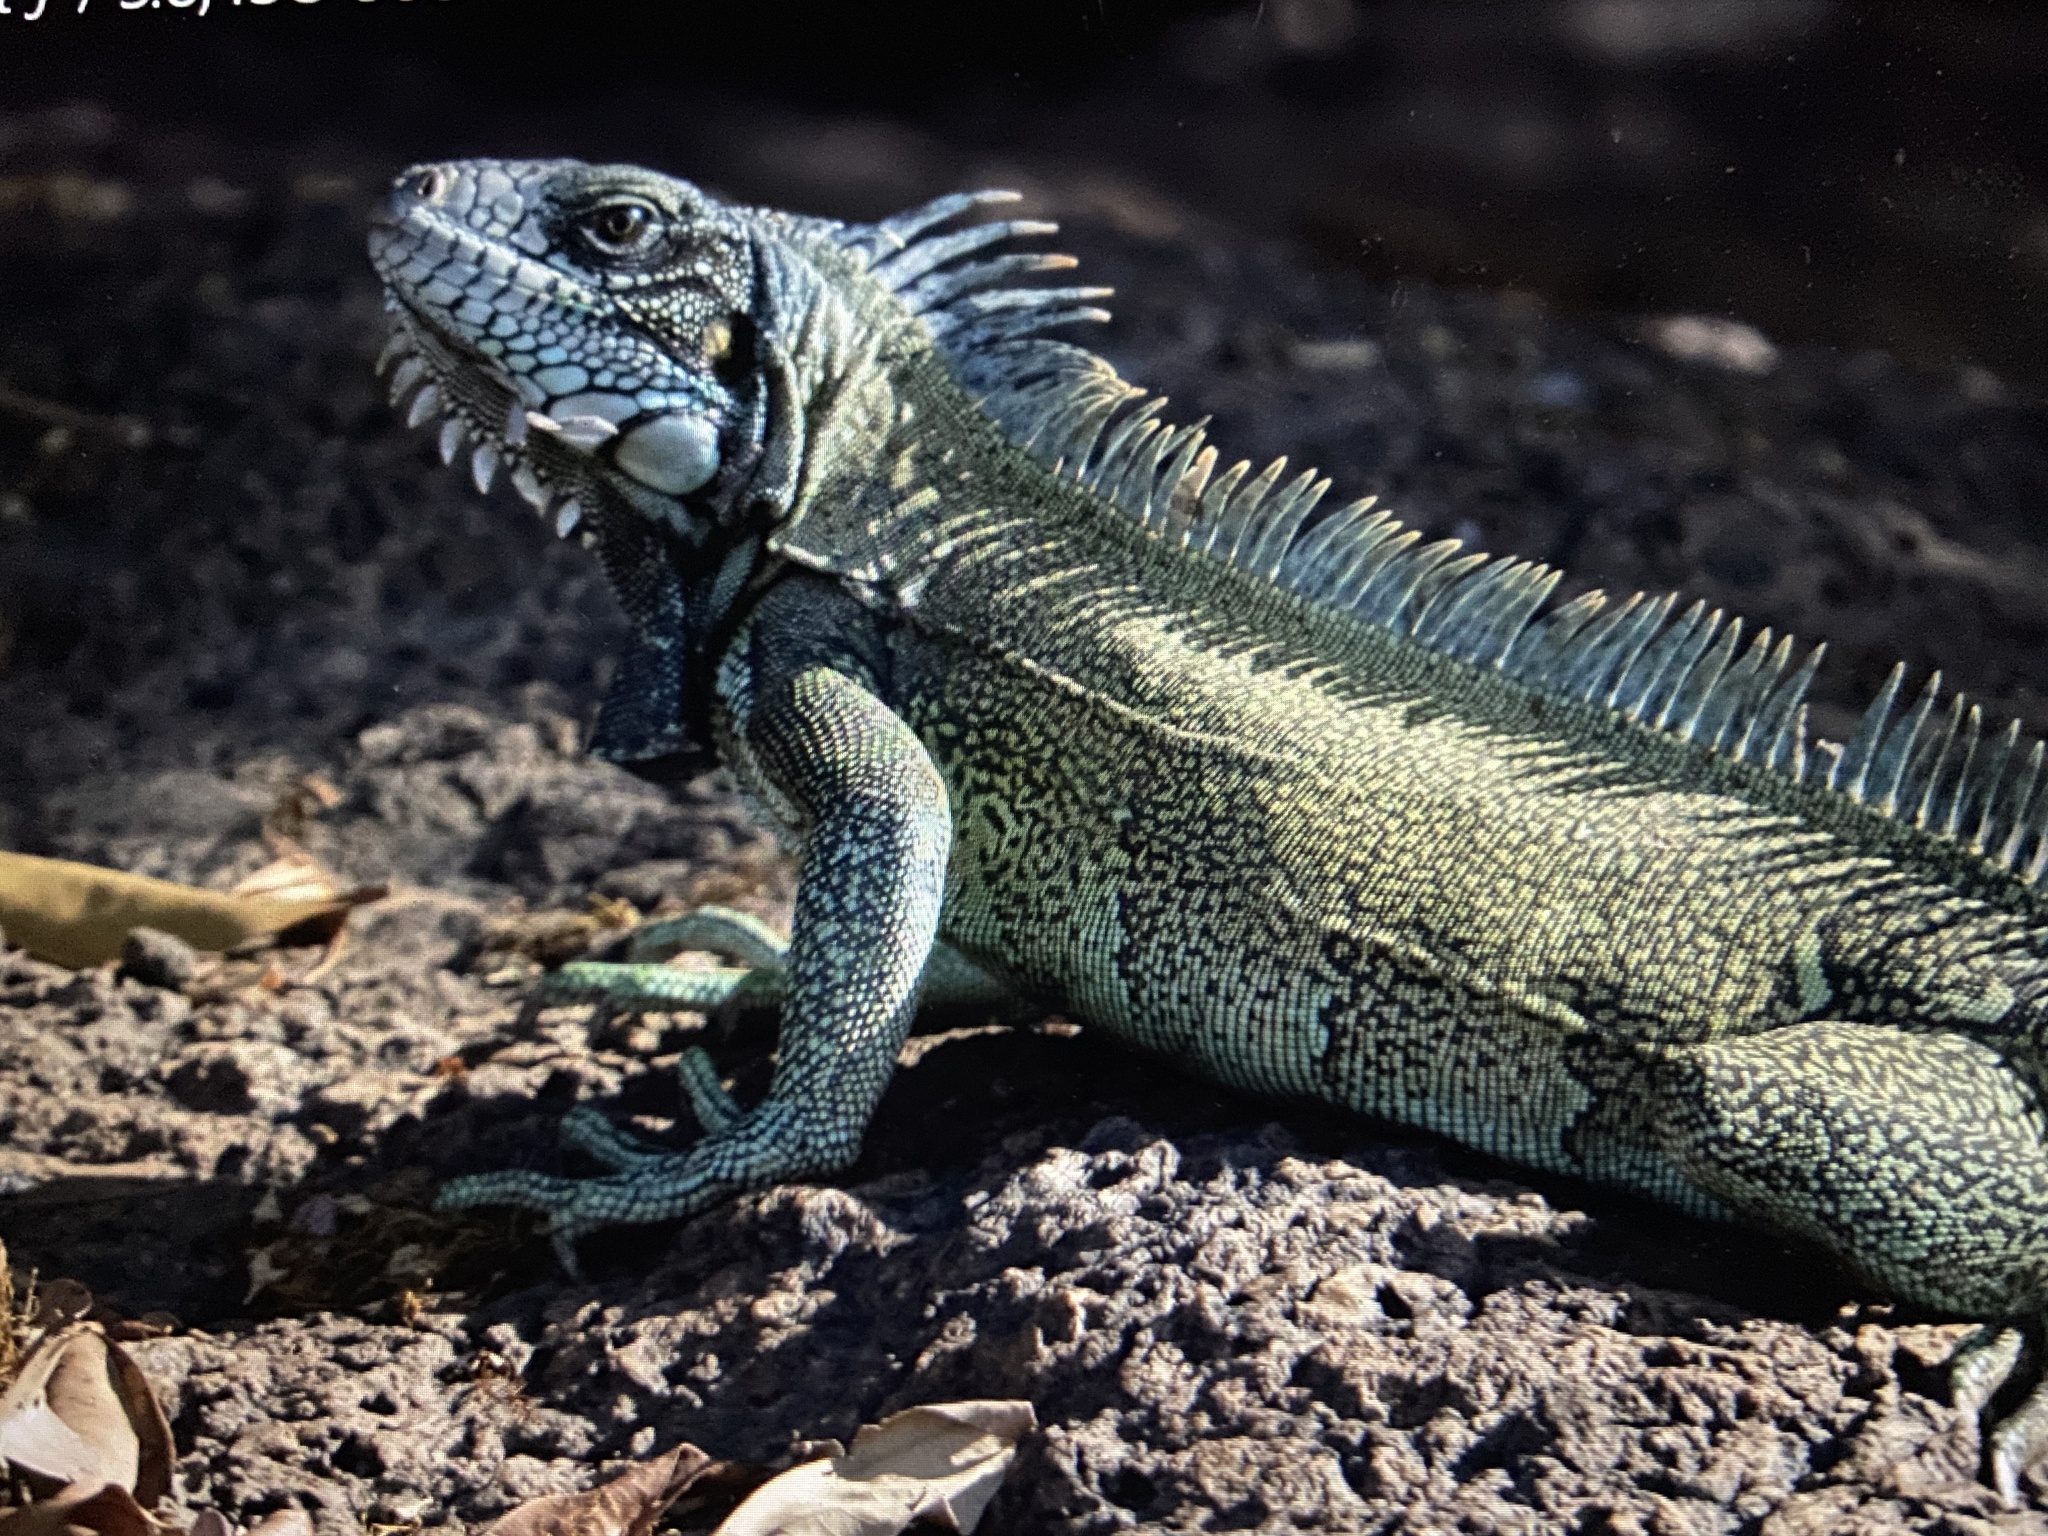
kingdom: Animalia
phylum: Chordata
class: Squamata
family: Iguanidae
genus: Iguana
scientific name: Iguana iguana
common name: Green iguana
